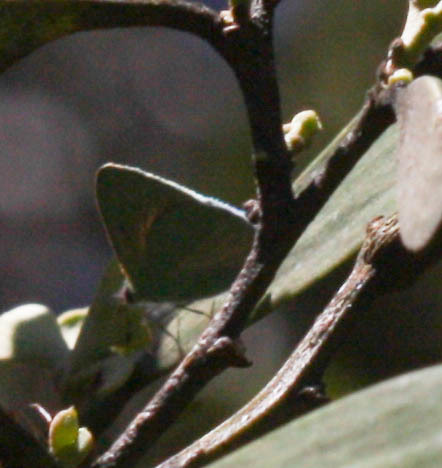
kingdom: Animalia
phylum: Arthropoda
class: Insecta
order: Lepidoptera
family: Lycaenidae
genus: Udara
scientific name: Udara blackburni
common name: Blackburn's blue
